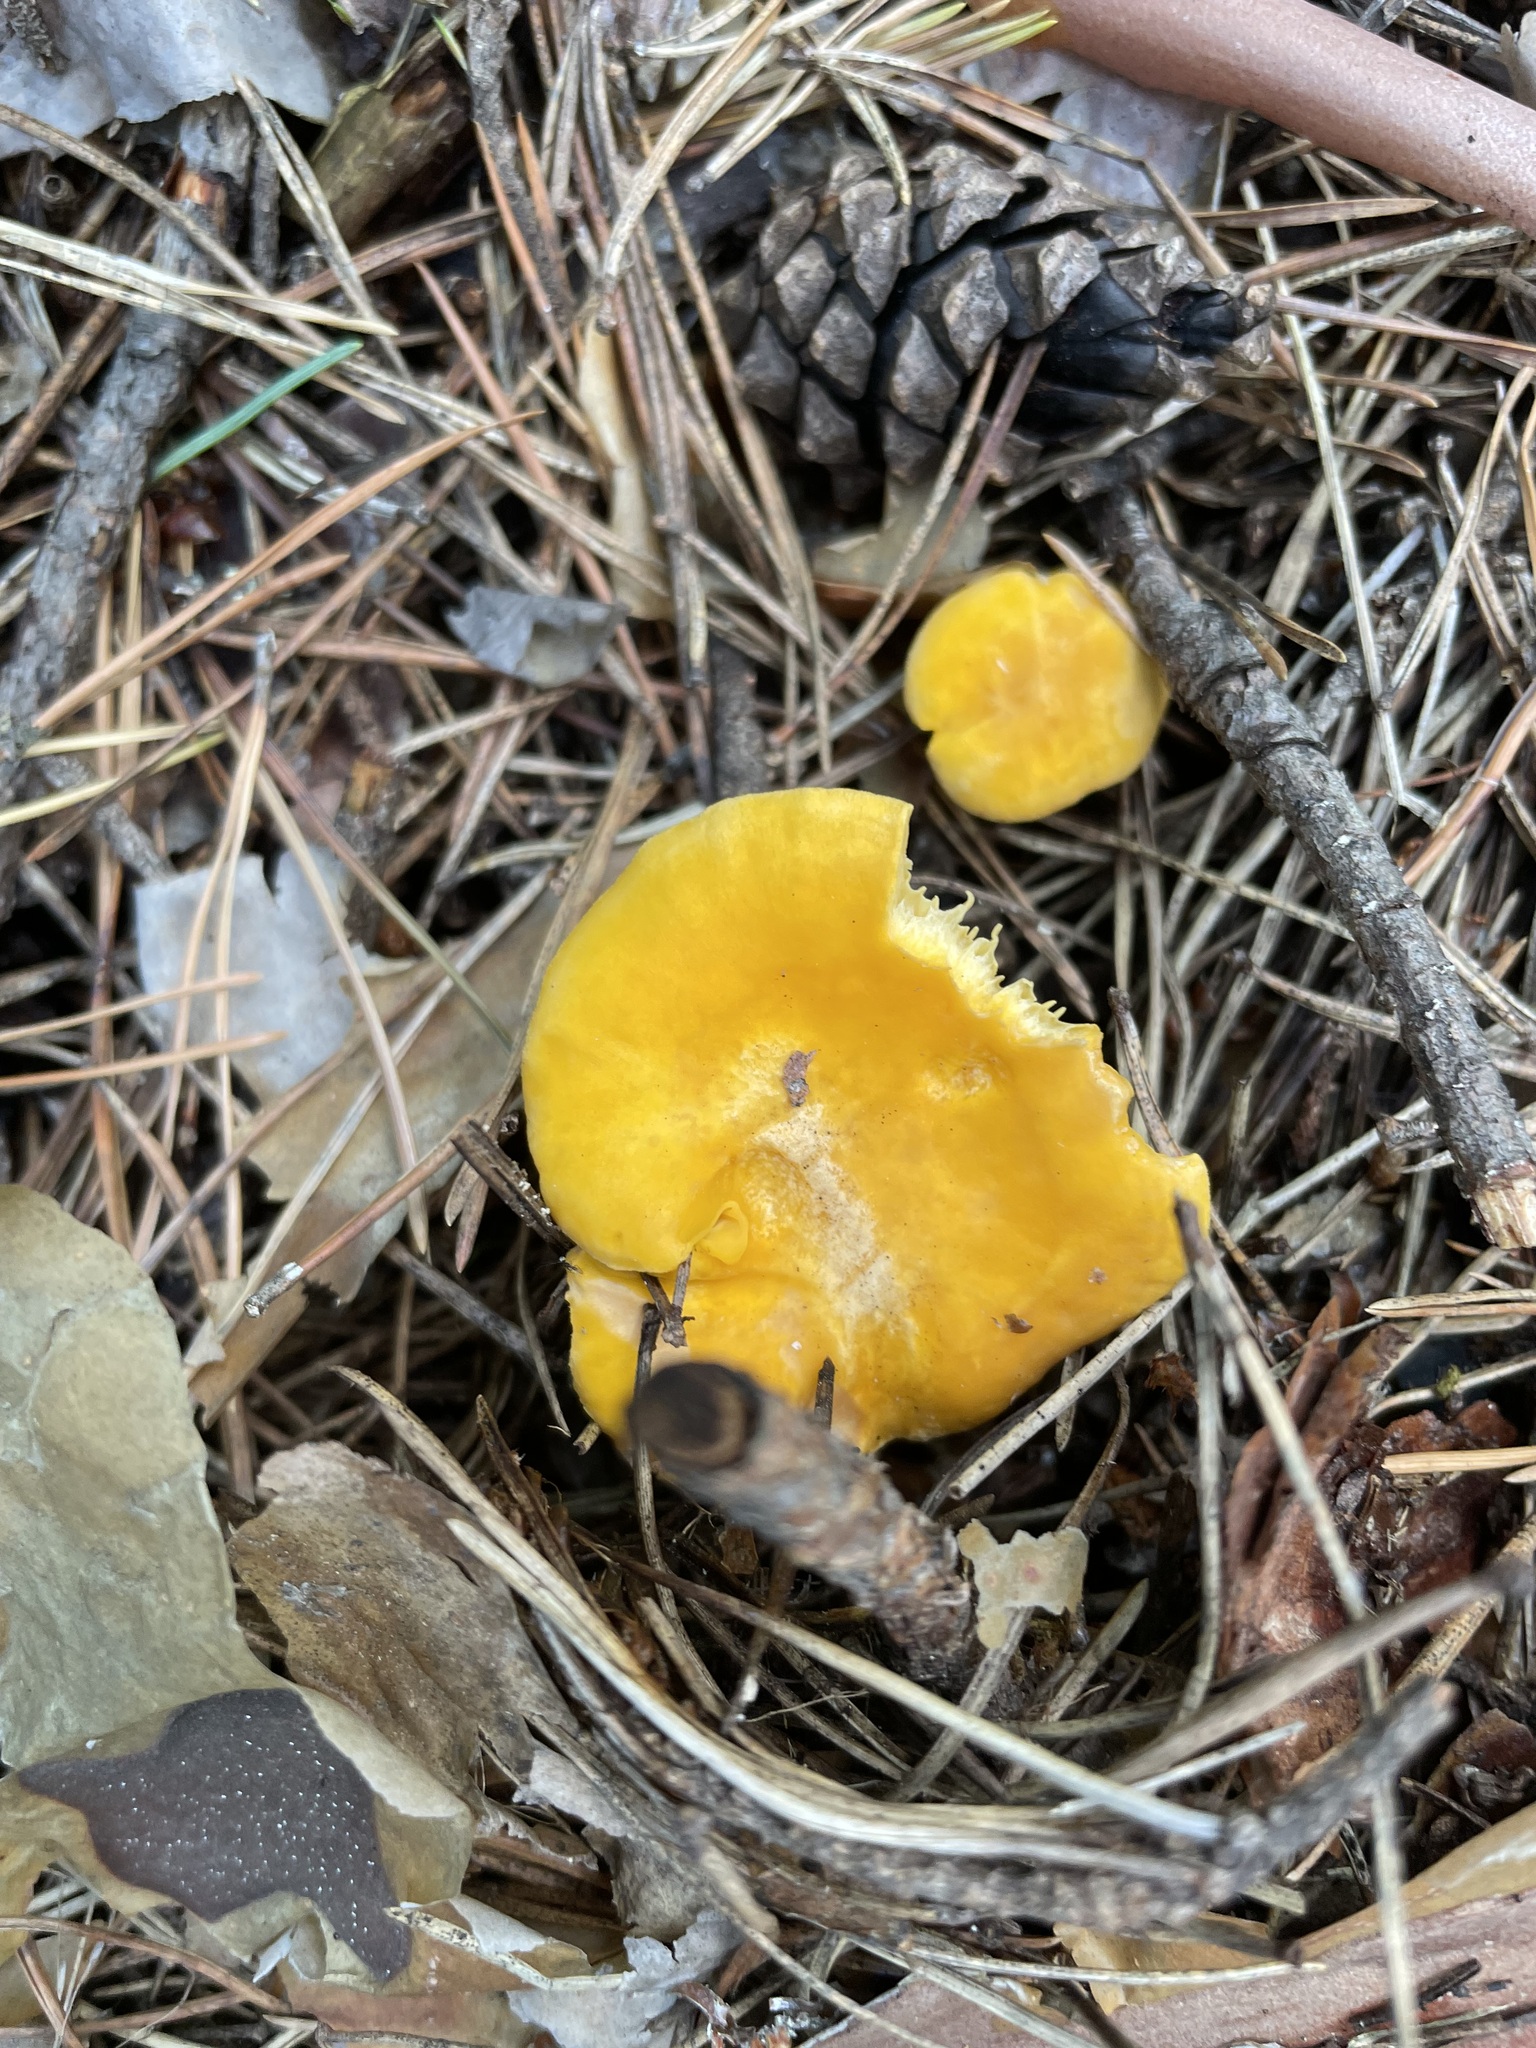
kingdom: Fungi
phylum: Basidiomycota
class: Agaricomycetes
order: Cantharellales
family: Hydnaceae
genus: Cantharellus
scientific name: Cantharellus cibarius
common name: Chanterelle
